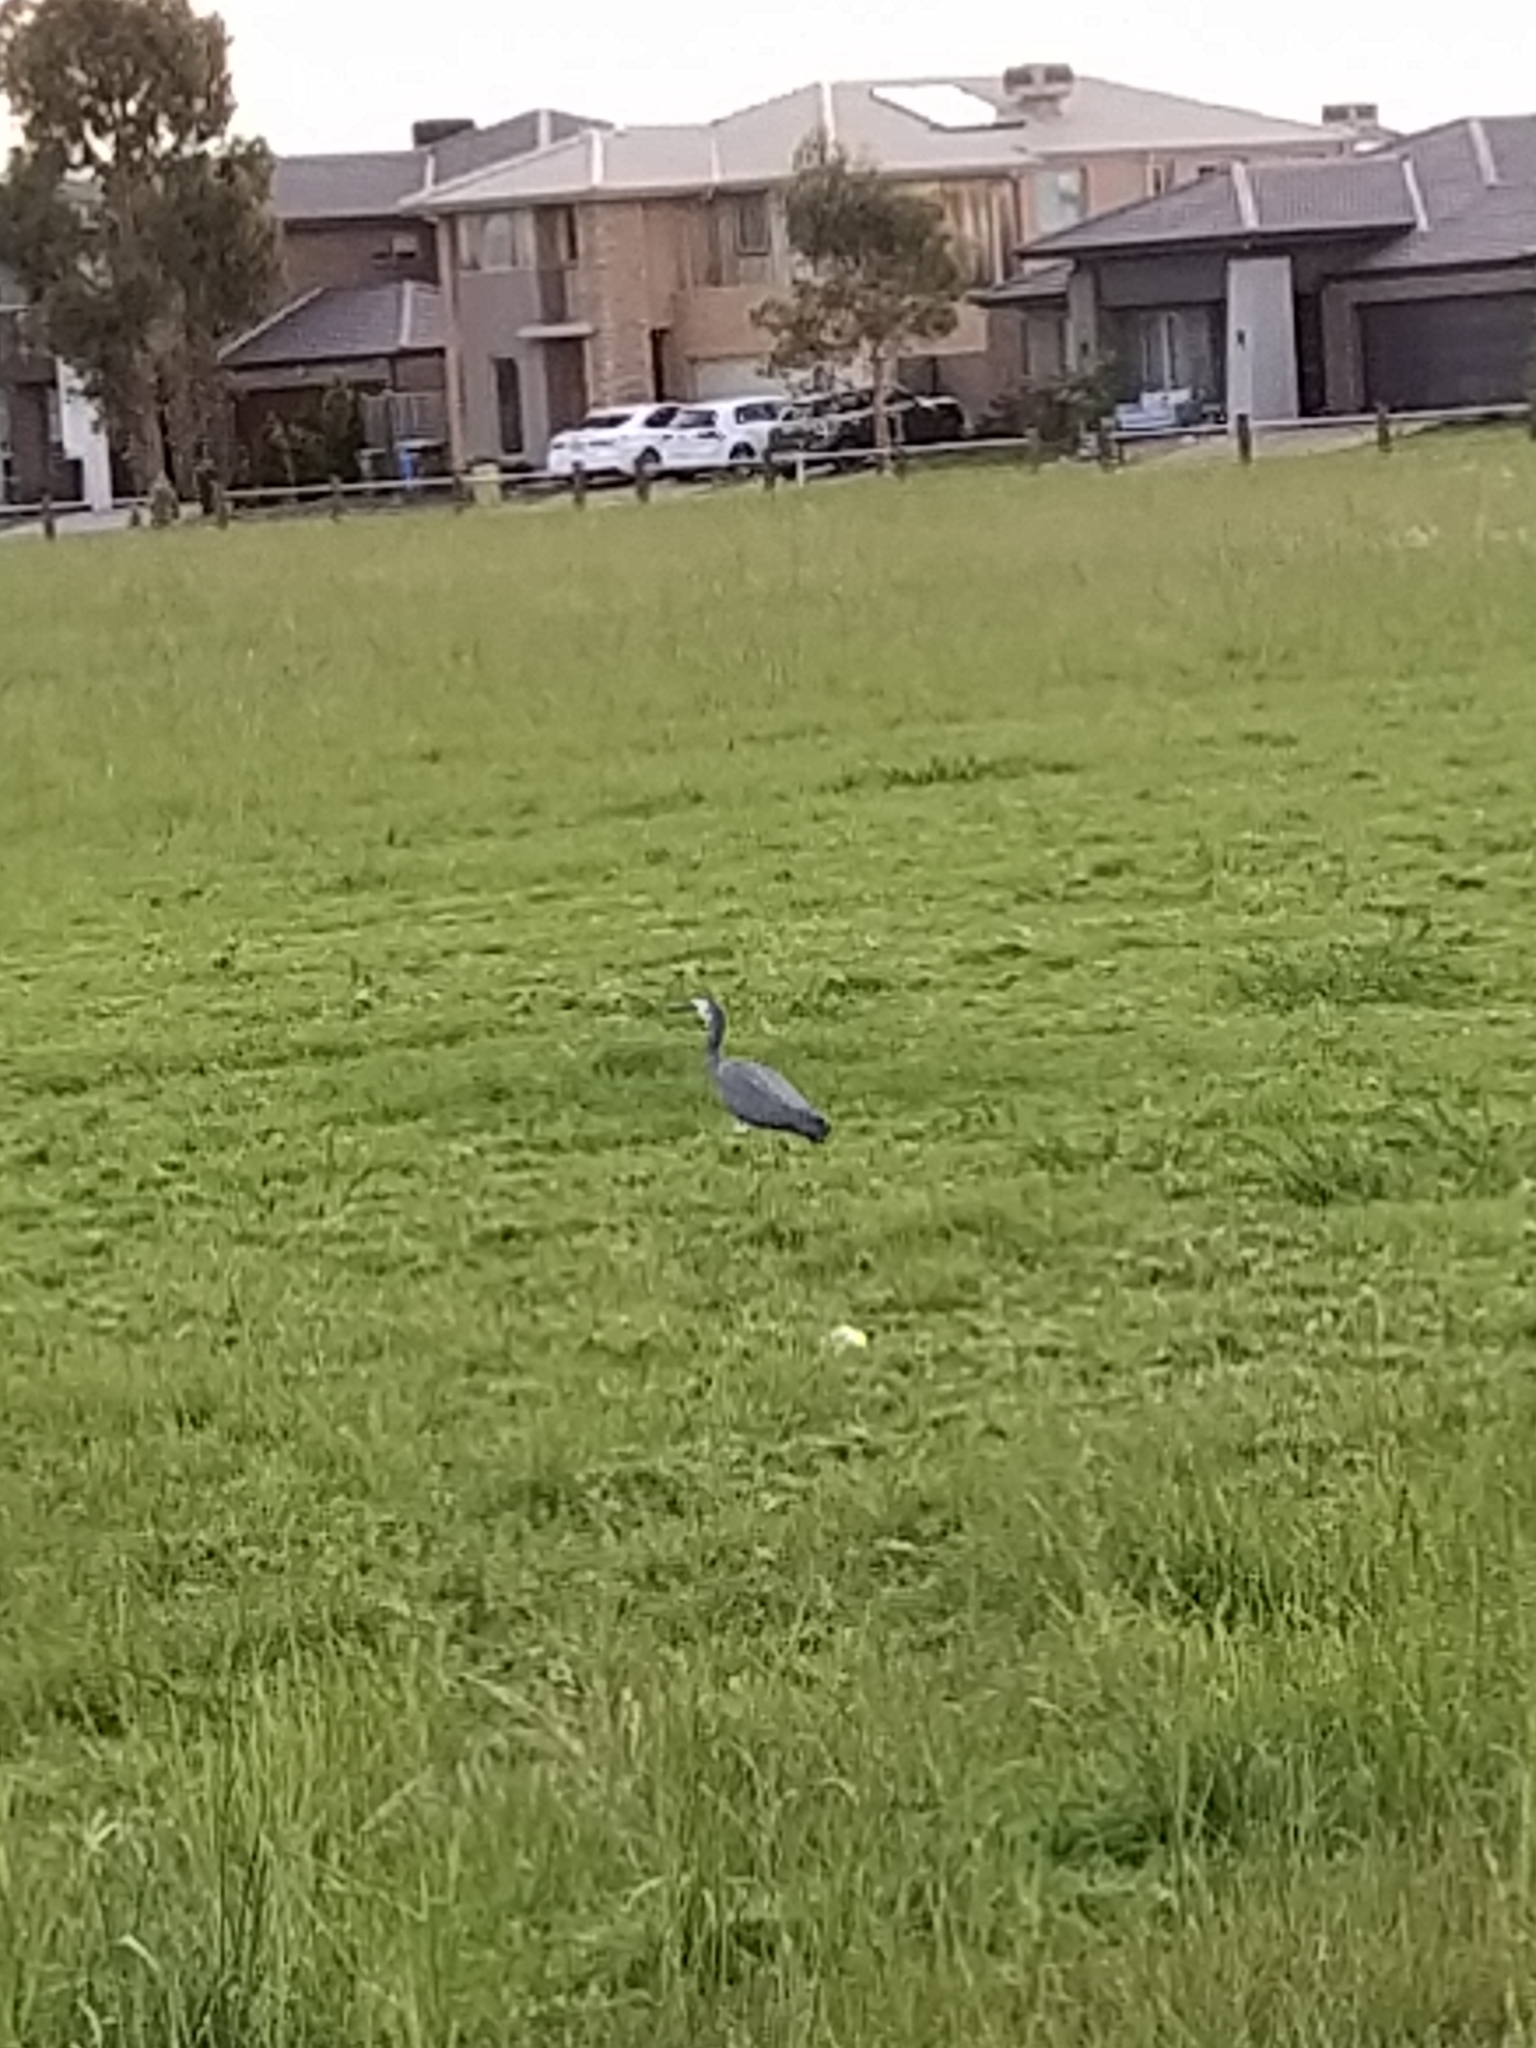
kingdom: Animalia
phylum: Chordata
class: Aves
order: Pelecaniformes
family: Ardeidae
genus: Egretta
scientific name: Egretta novaehollandiae
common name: White-faced heron
